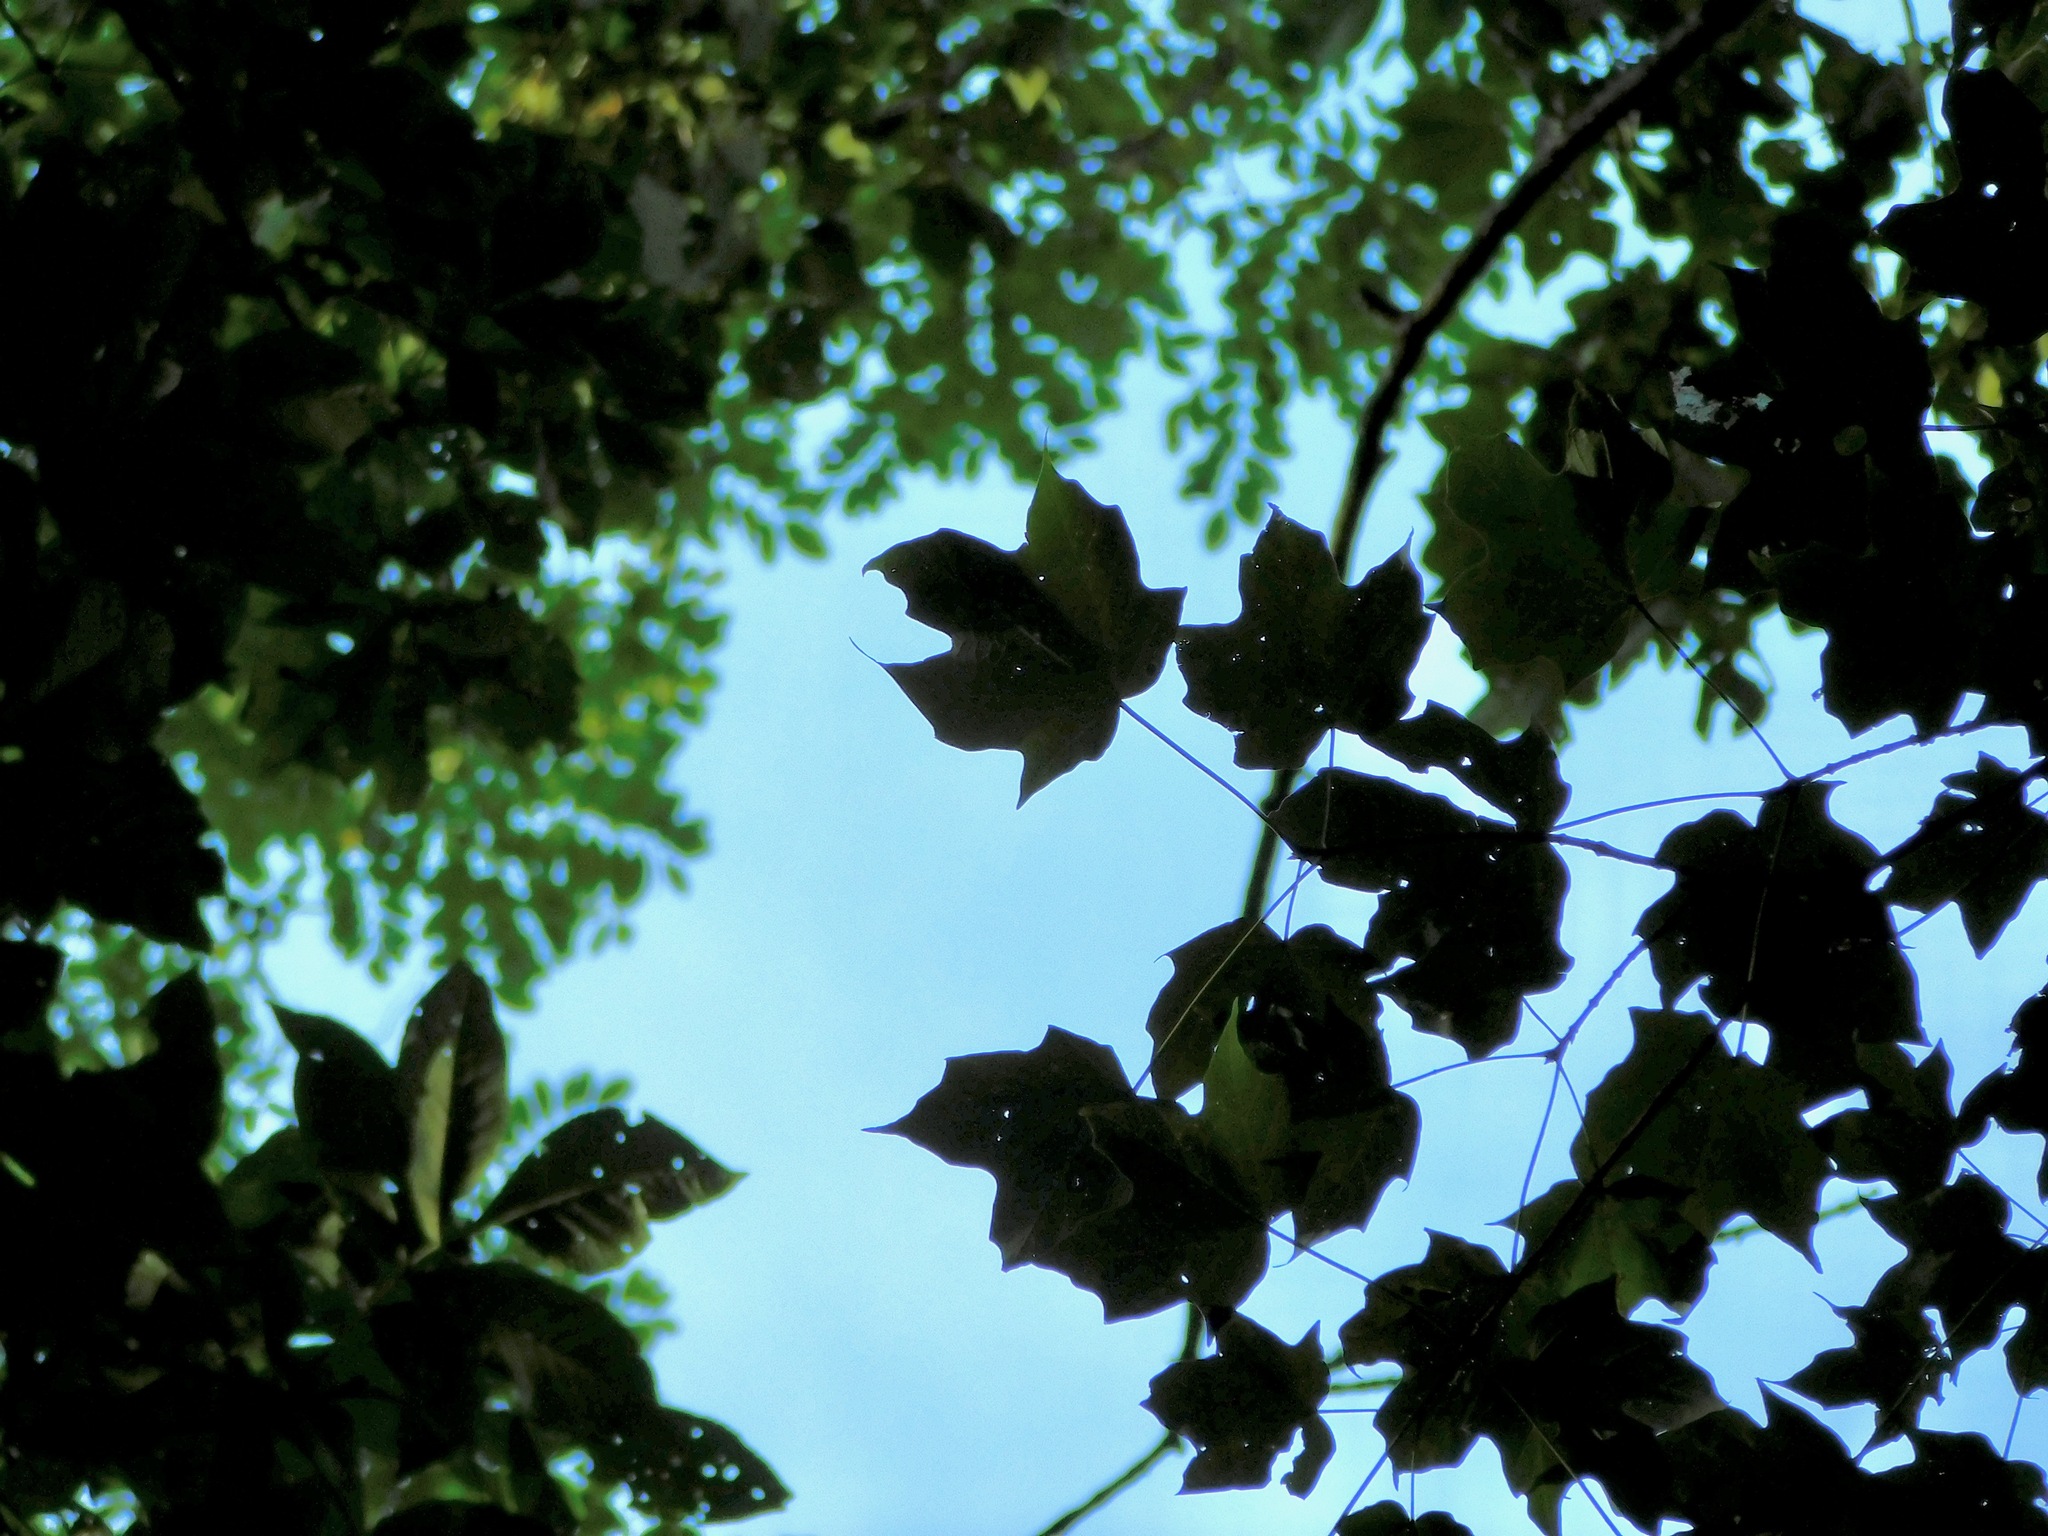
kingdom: Plantae
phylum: Tracheophyta
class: Magnoliopsida
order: Sapindales
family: Sapindaceae
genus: Acer
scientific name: Acer nigrum
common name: Black maple
